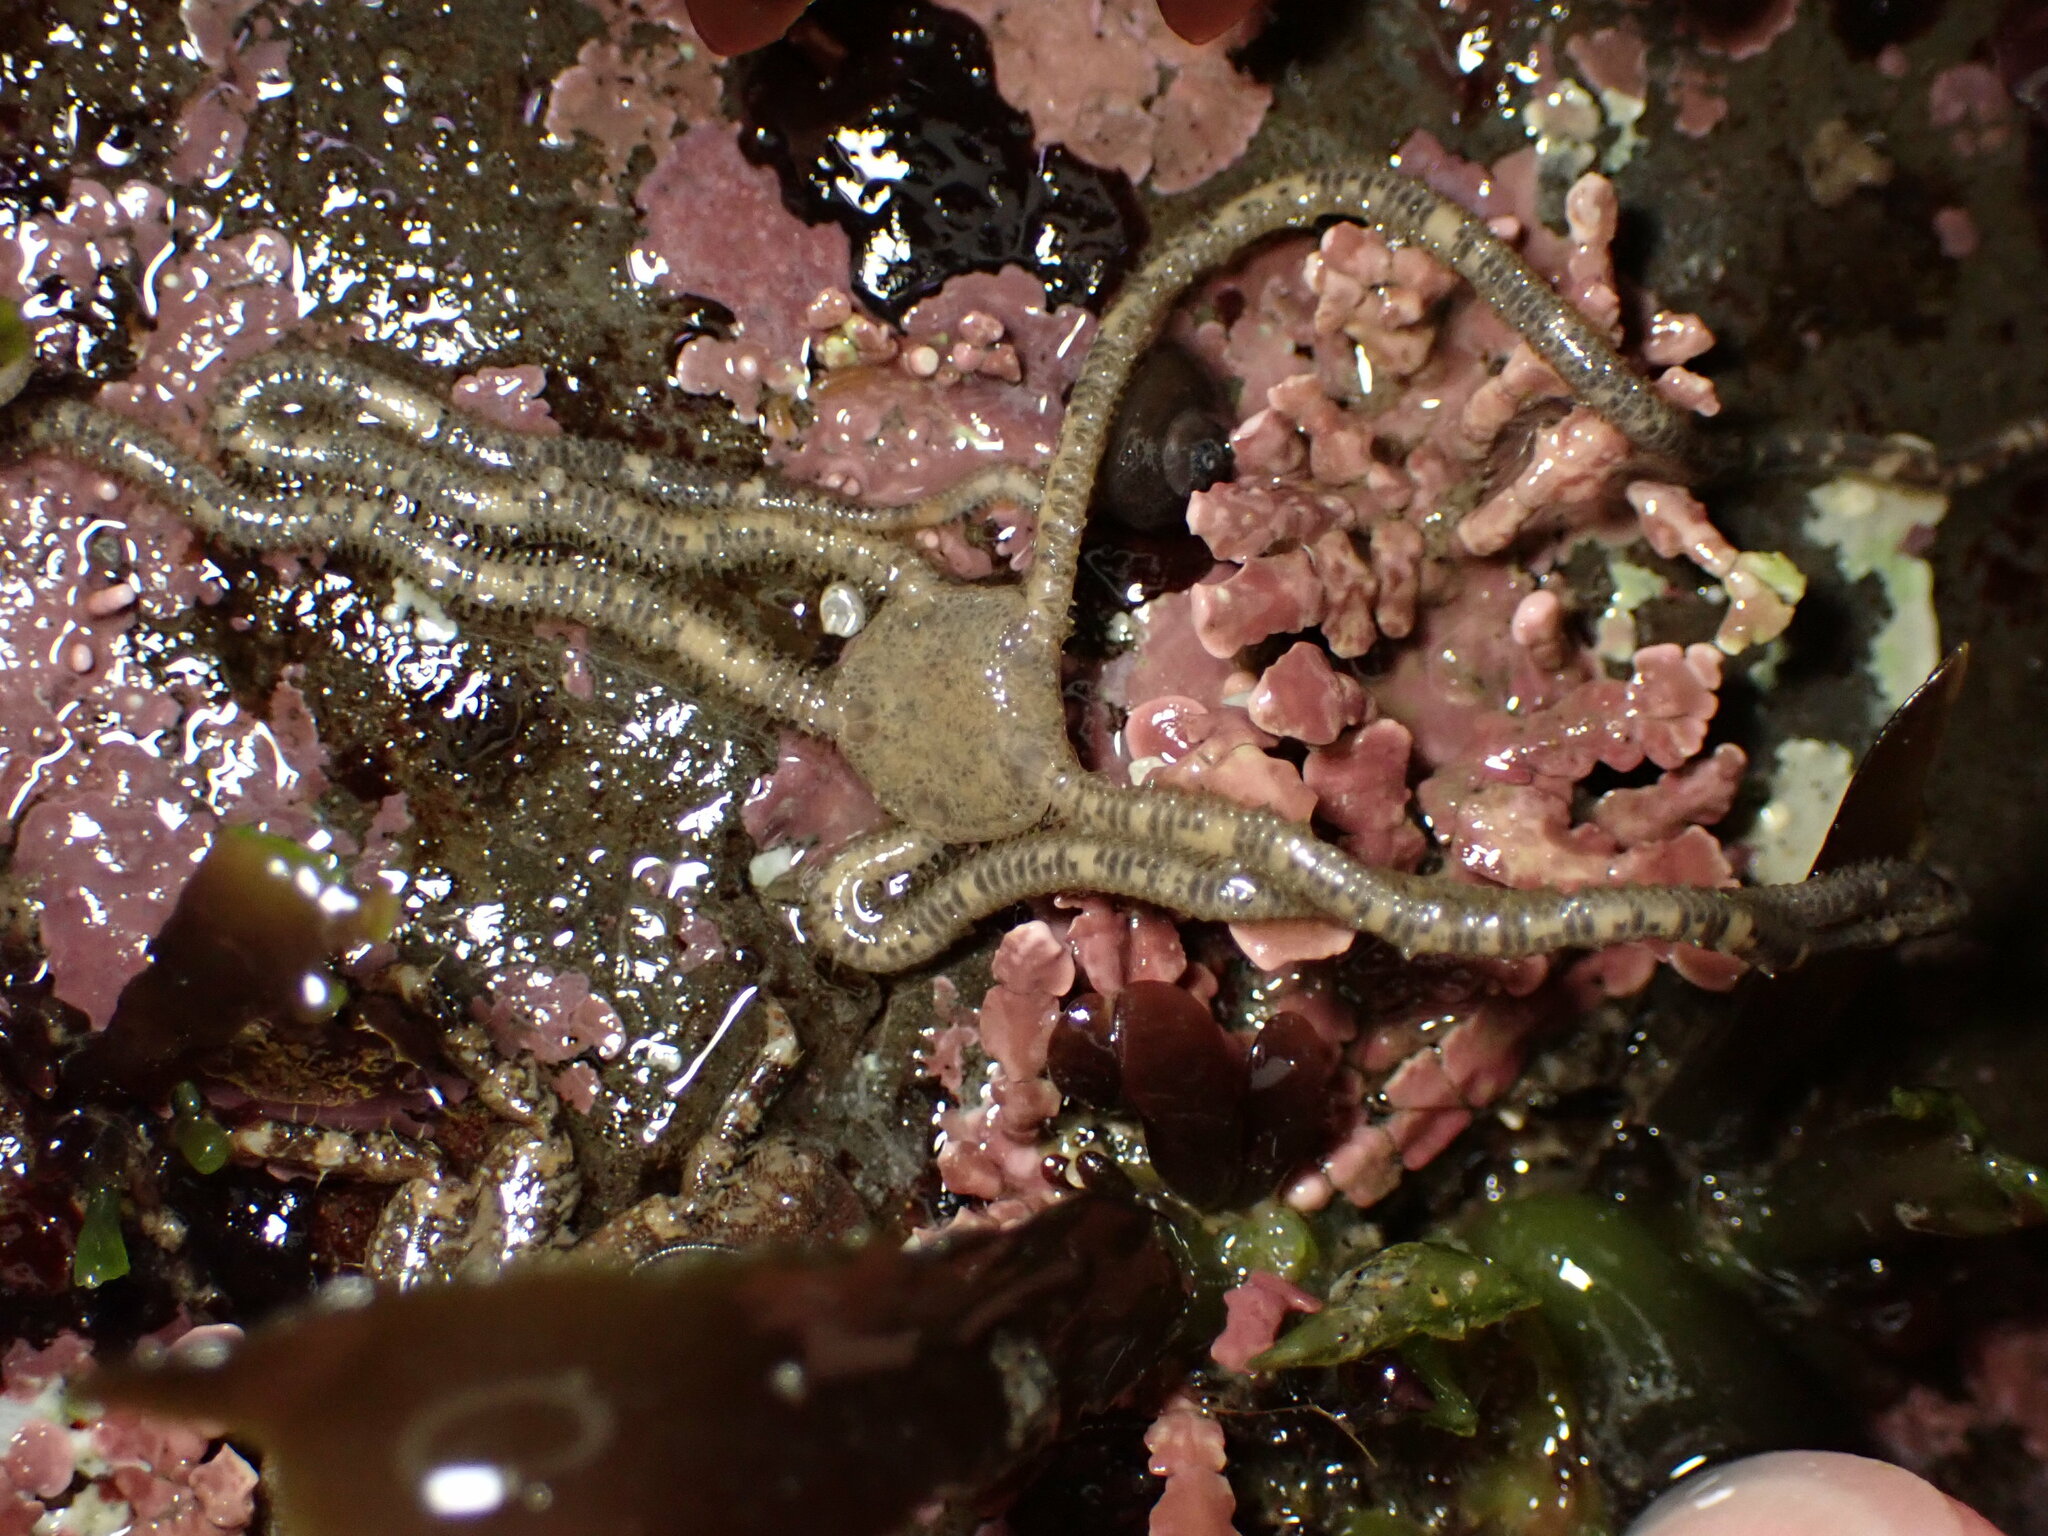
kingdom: Animalia
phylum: Echinodermata
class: Ophiuroidea
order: Amphilepidida
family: Amphiuridae
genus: Amphiodia
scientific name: Amphiodia occidentalis
